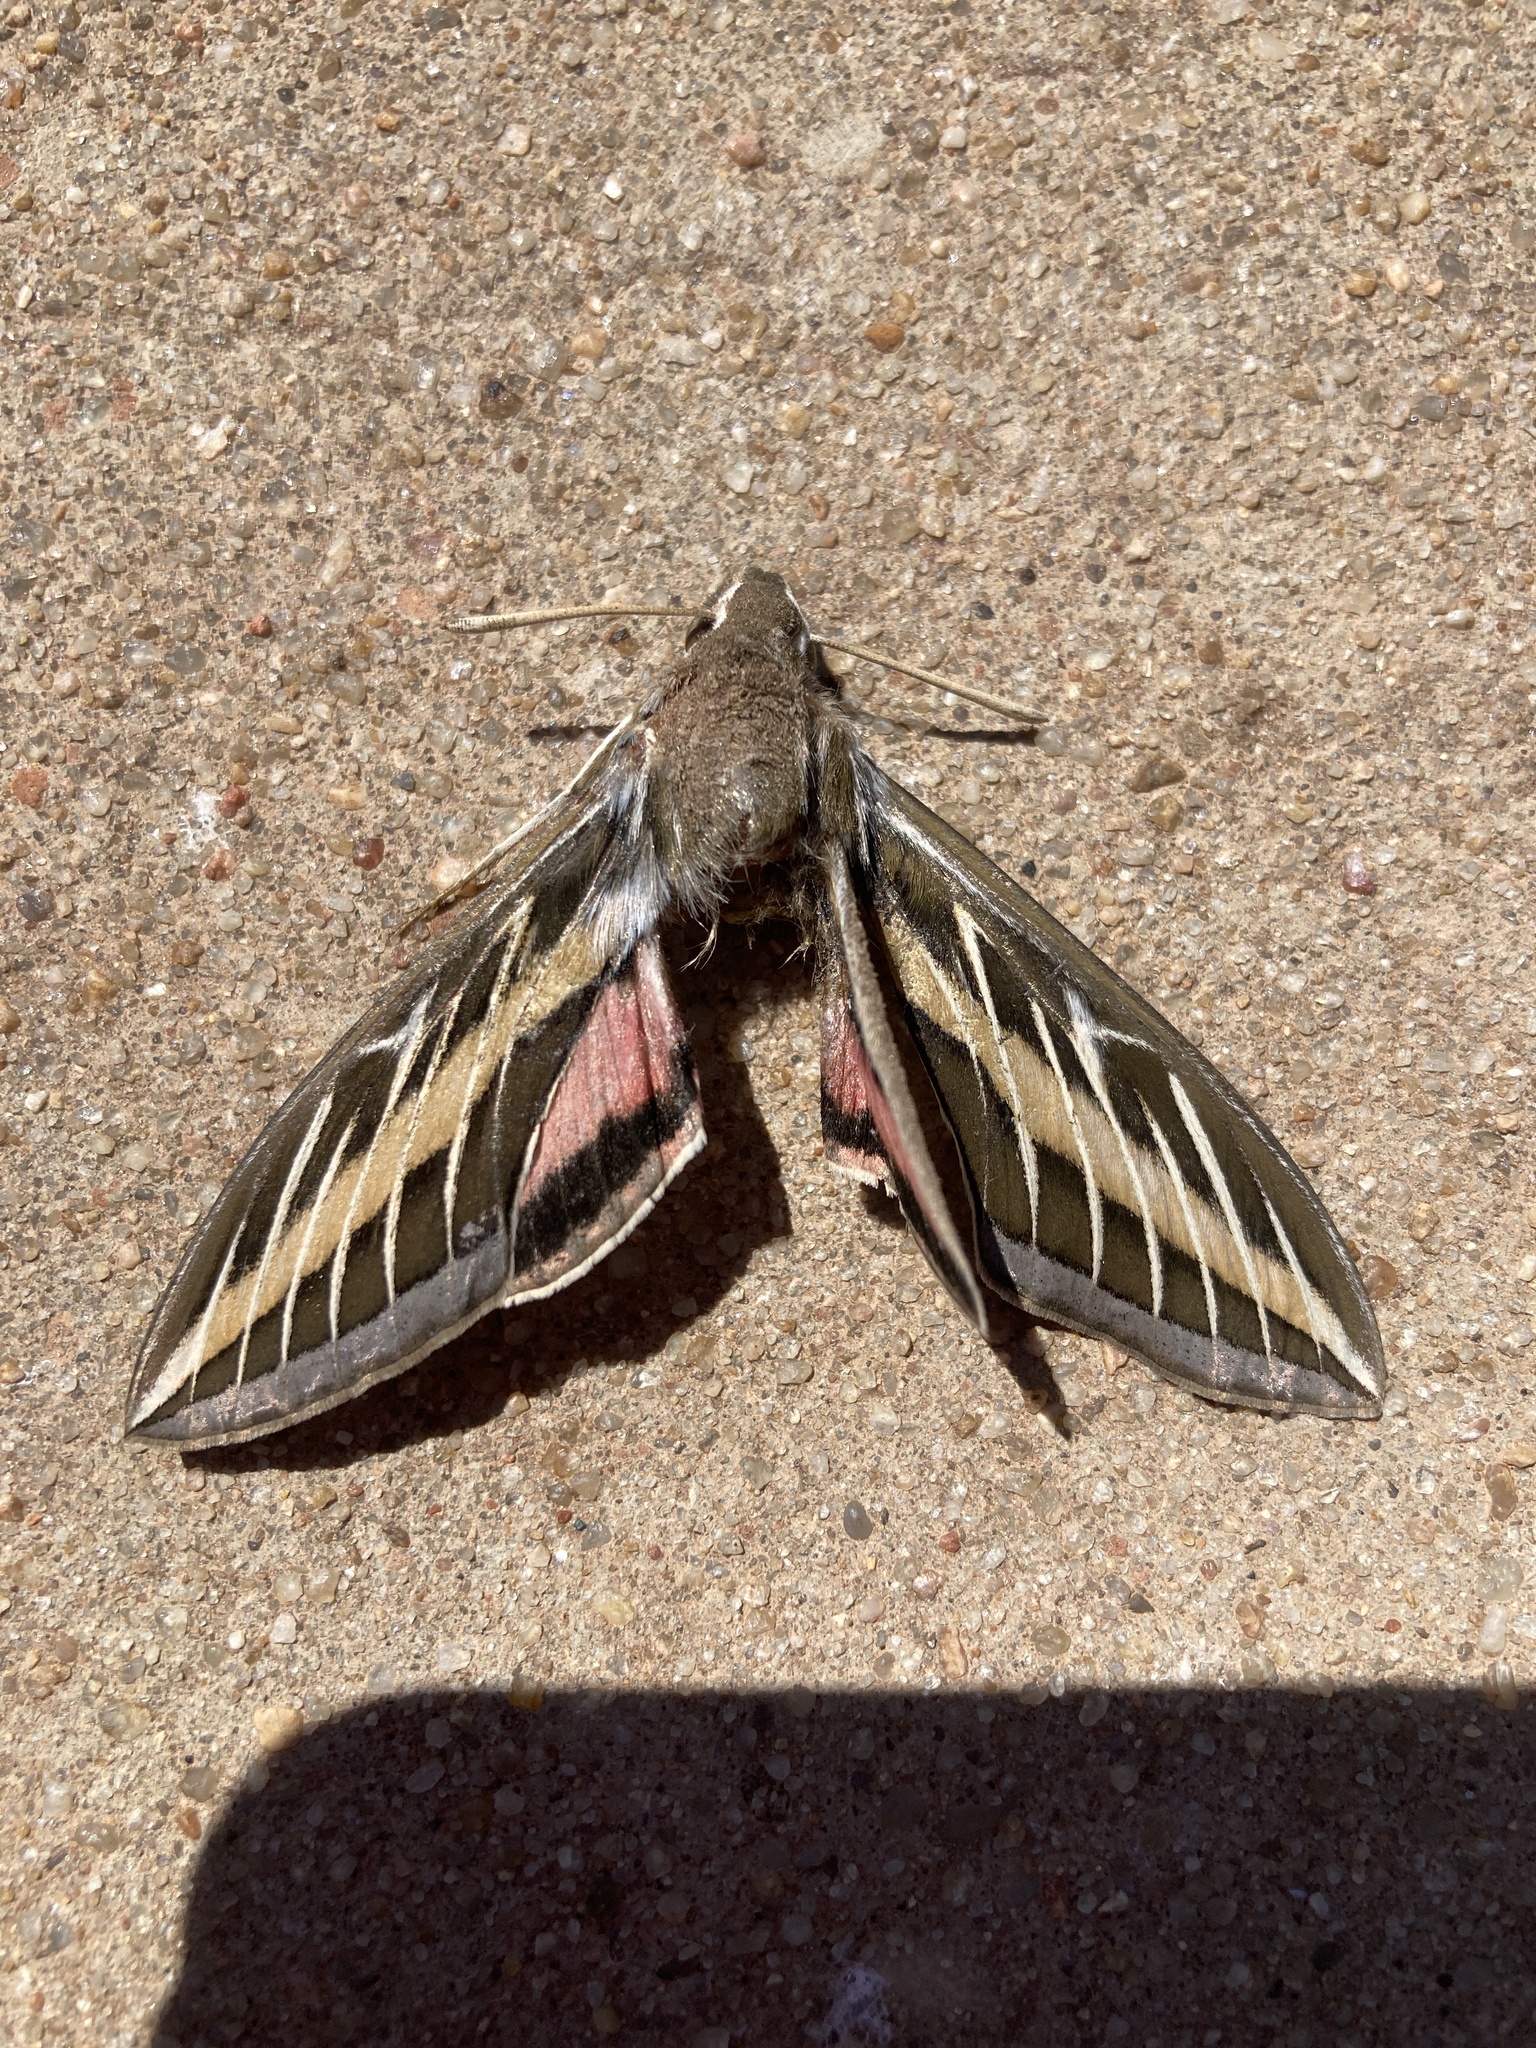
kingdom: Animalia
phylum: Arthropoda
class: Insecta
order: Lepidoptera
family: Sphingidae
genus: Hyles
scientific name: Hyles lineata
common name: White-lined sphinx
